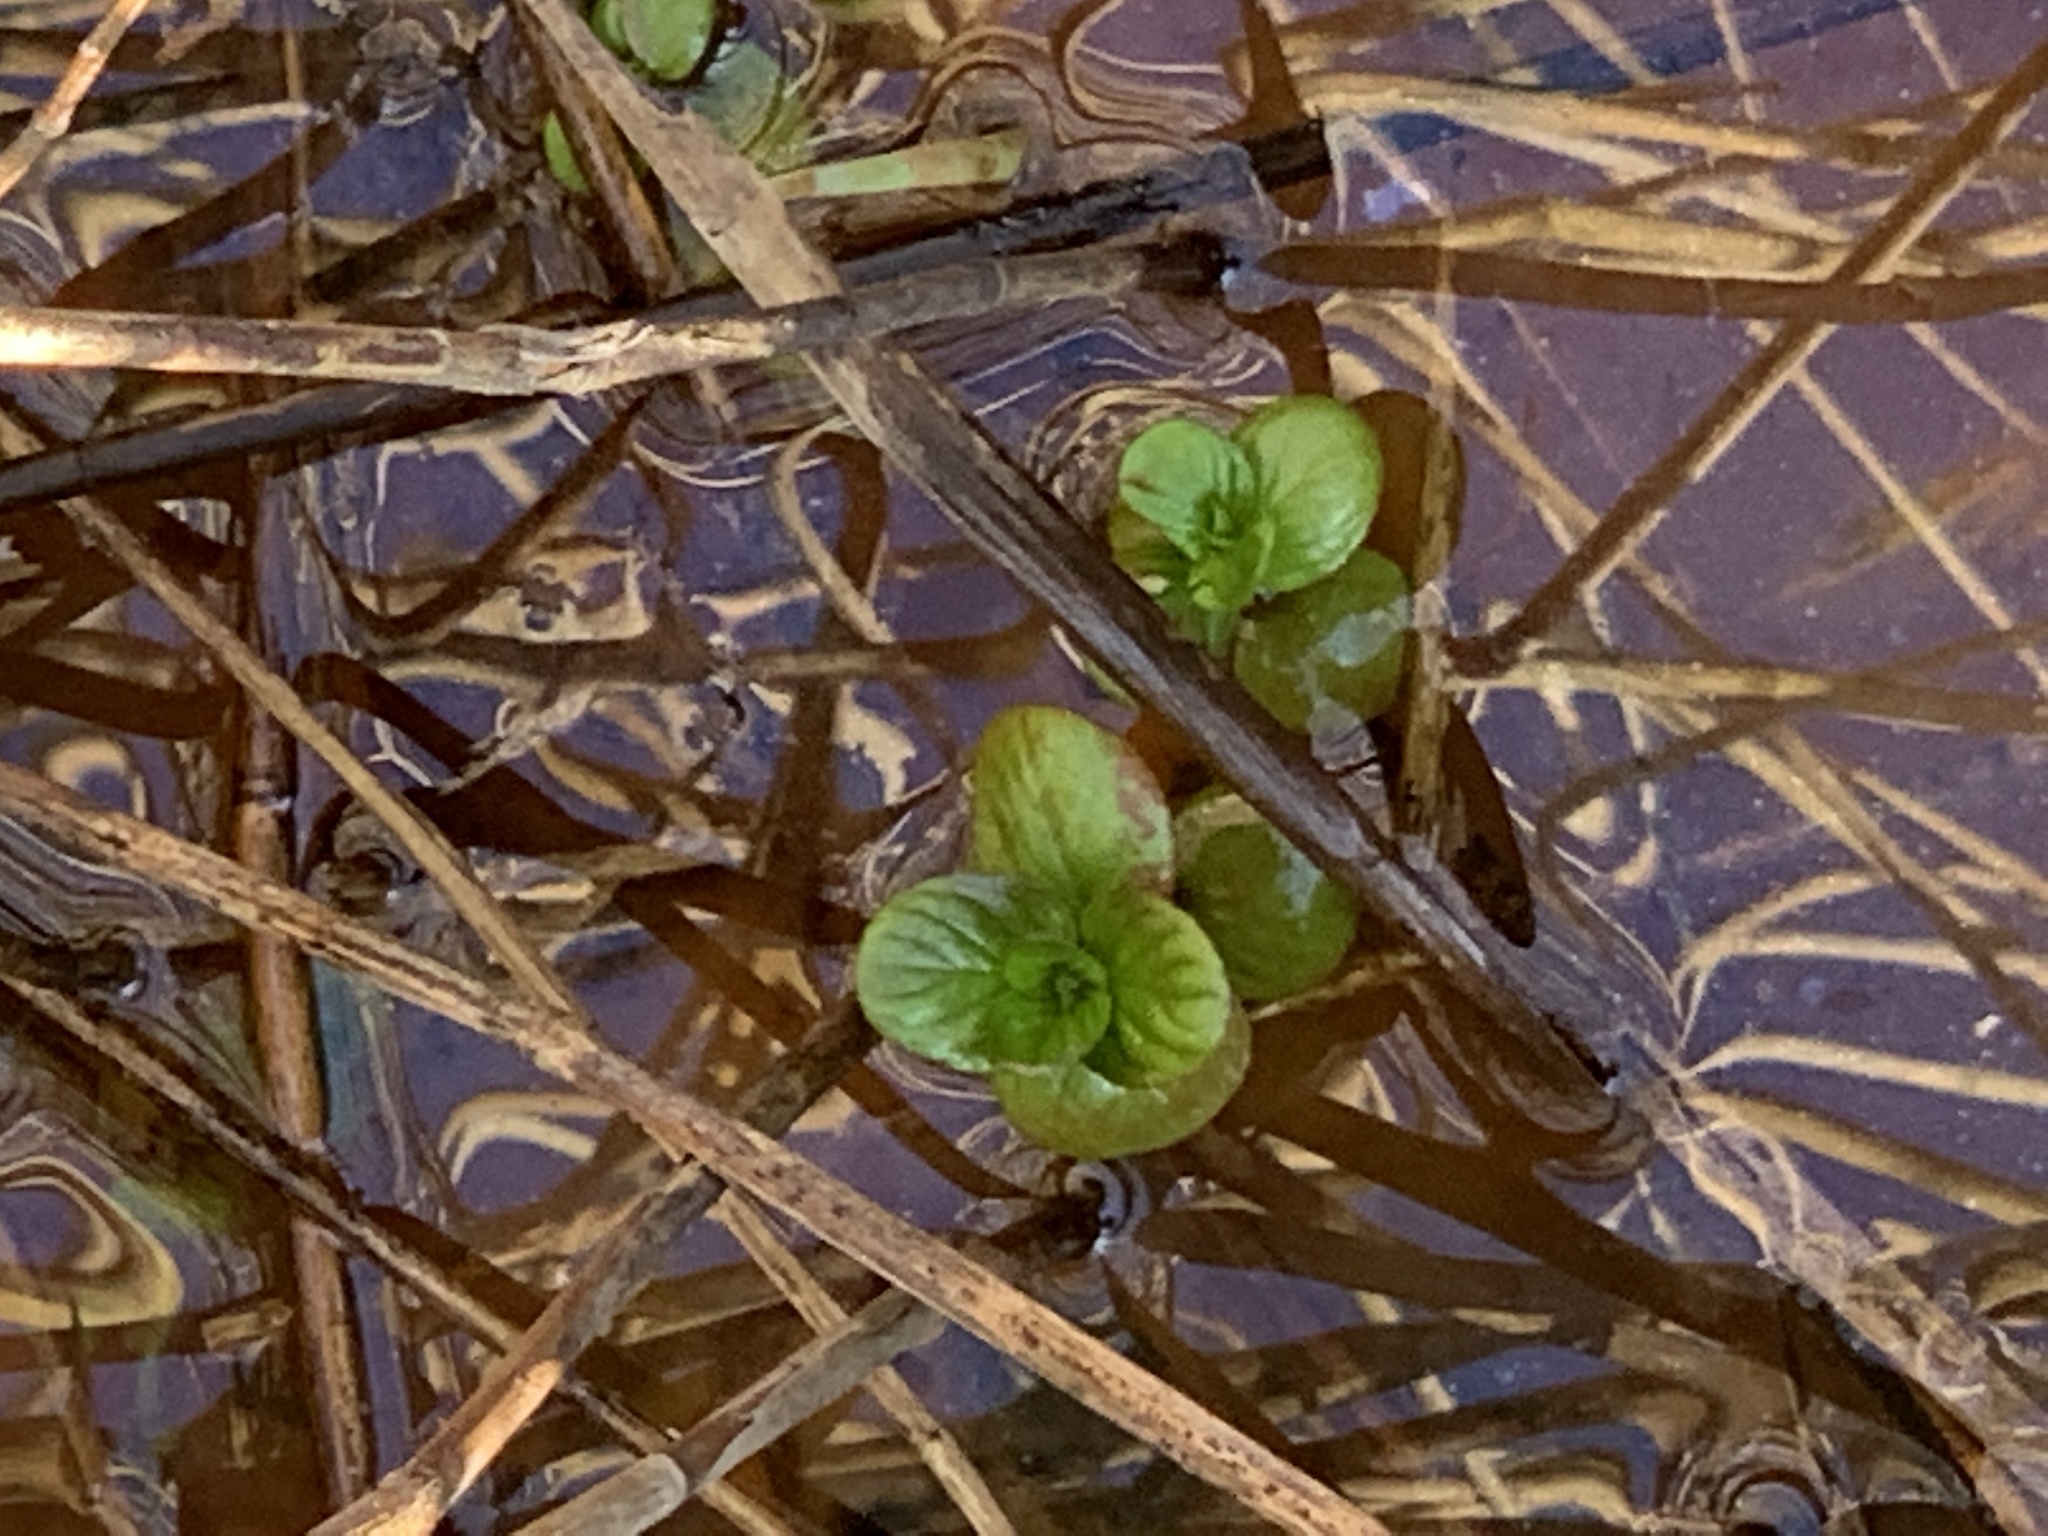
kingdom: Plantae
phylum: Tracheophyta
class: Magnoliopsida
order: Lamiales
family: Lamiaceae
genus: Mentha
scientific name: Mentha aquatica
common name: Water mint
